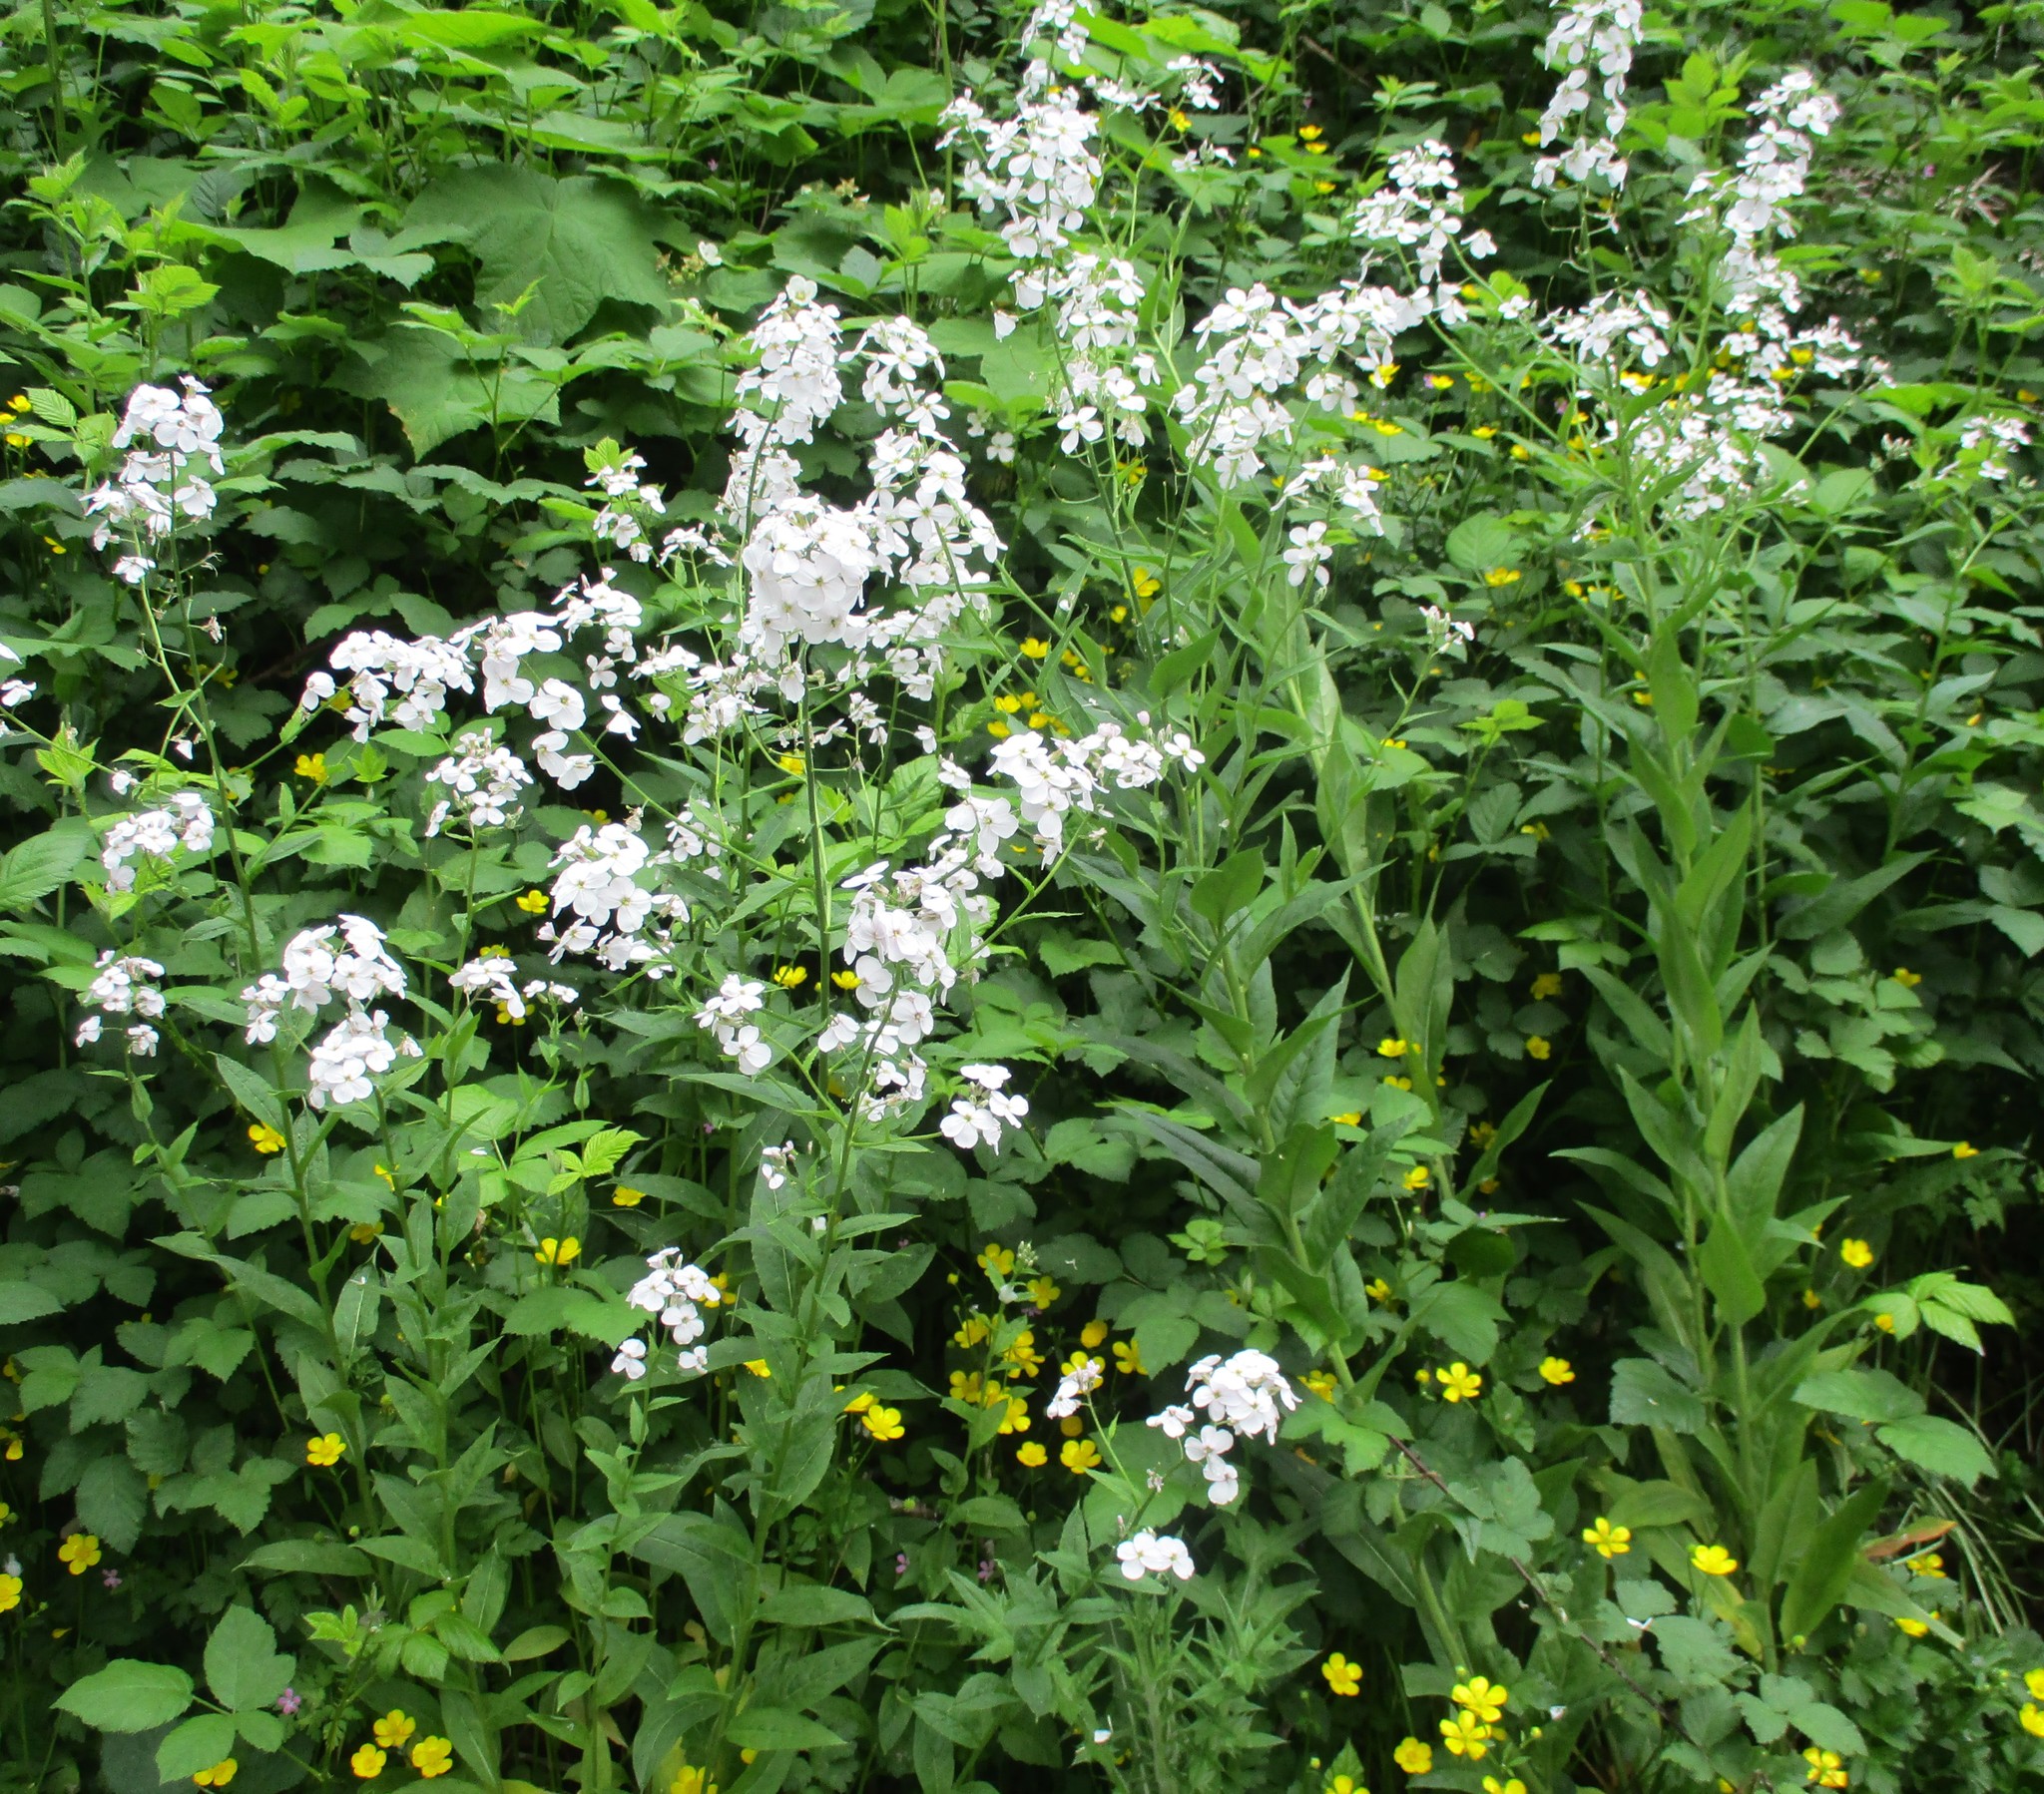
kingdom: Plantae
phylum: Tracheophyta
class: Magnoliopsida
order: Brassicales
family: Brassicaceae
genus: Hesperis
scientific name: Hesperis matronalis
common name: Dame's-violet
